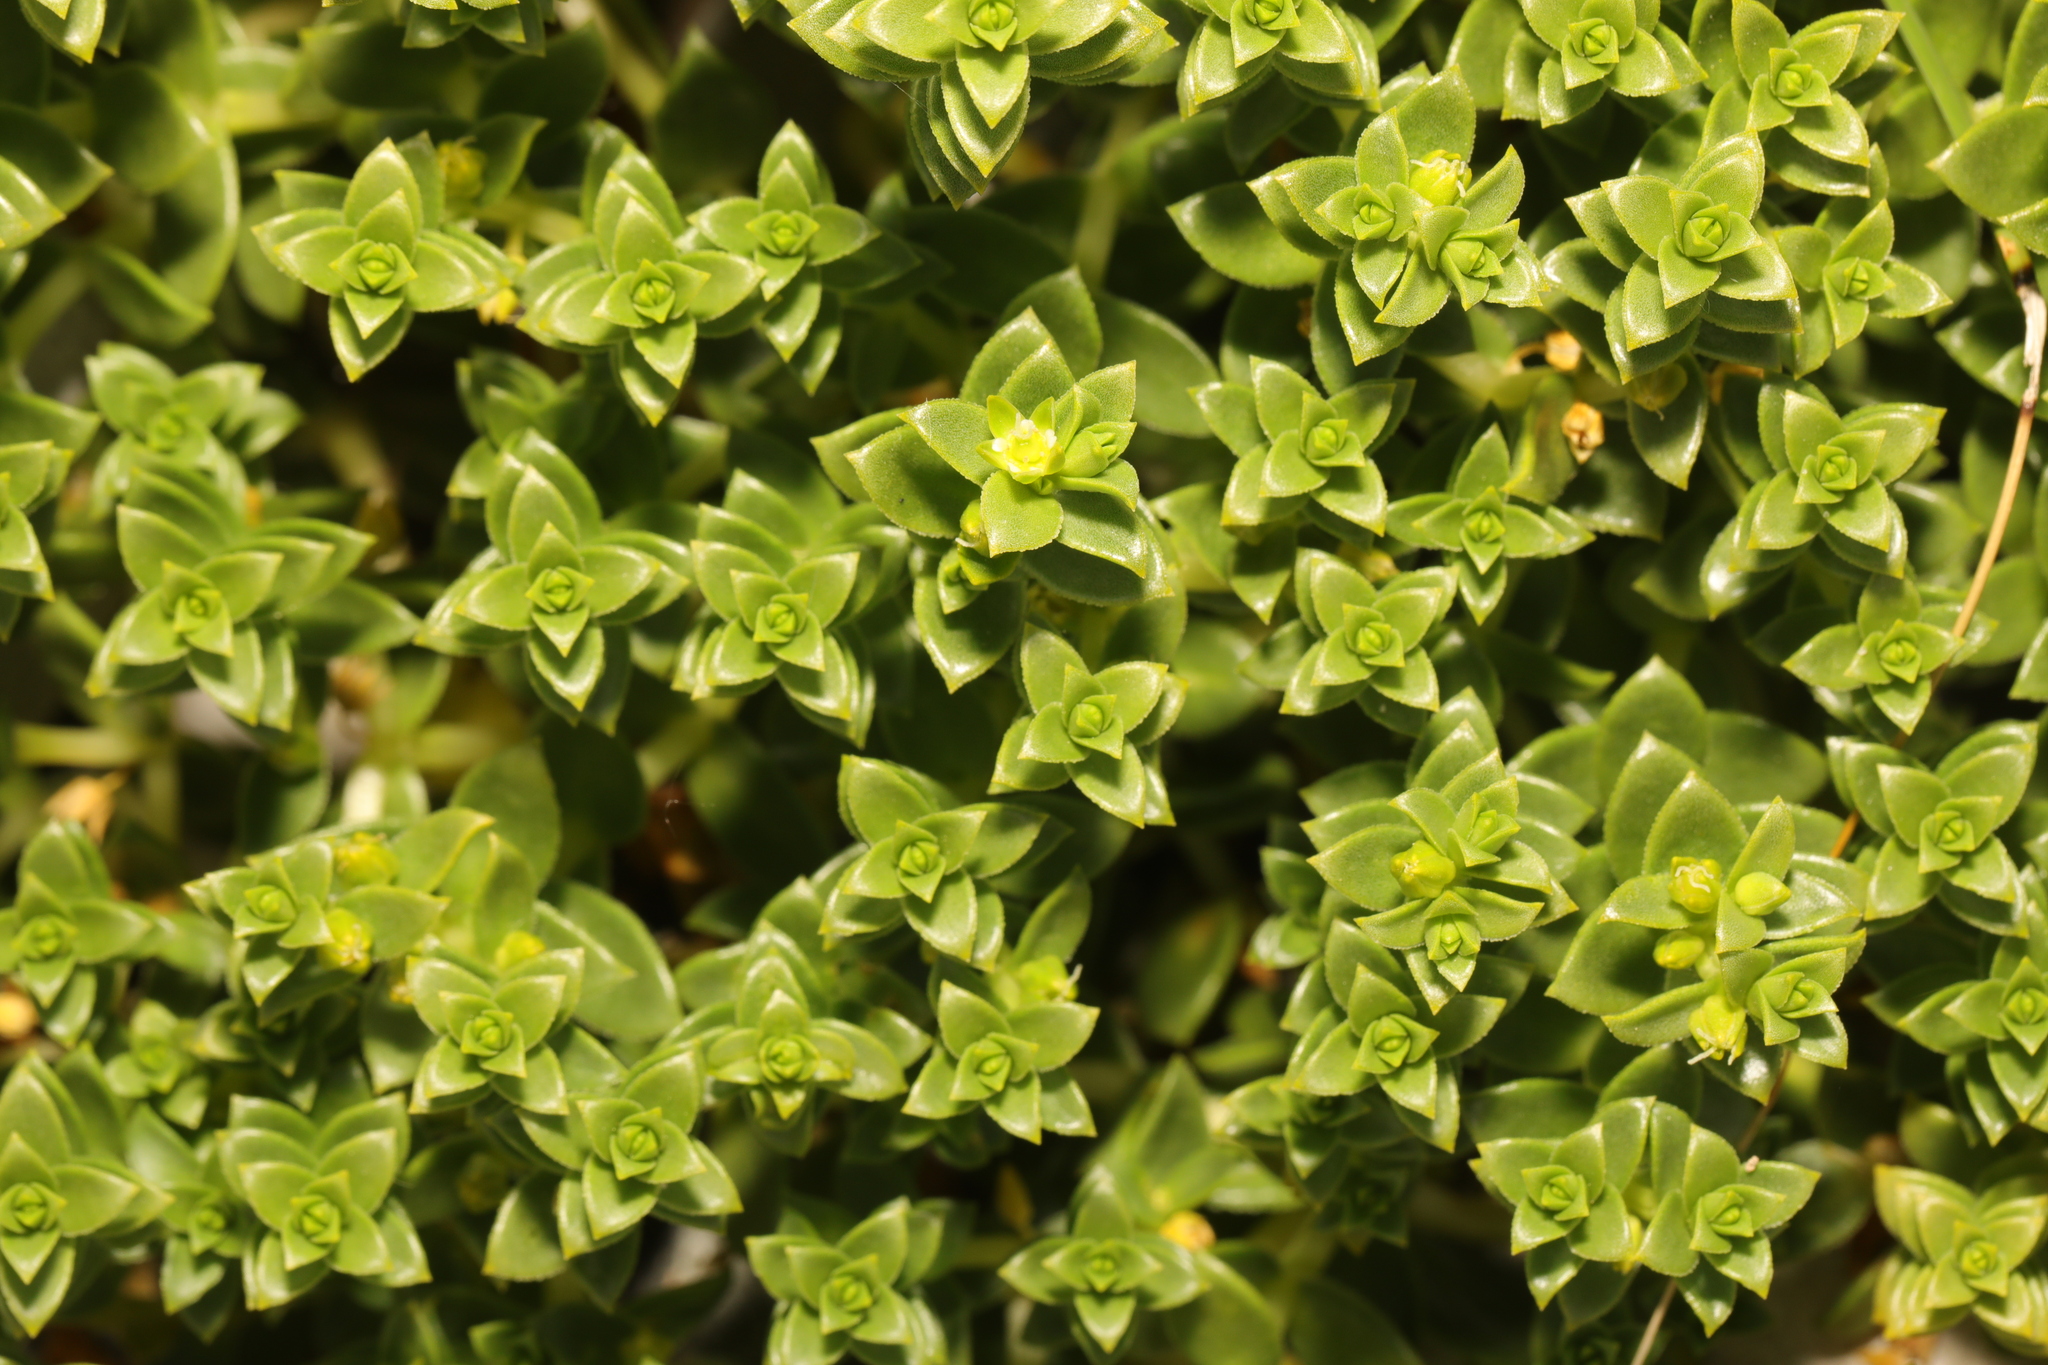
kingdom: Plantae
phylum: Tracheophyta
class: Magnoliopsida
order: Caryophyllales
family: Caryophyllaceae
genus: Honckenya
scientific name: Honckenya peploides
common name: Sea sandwort
